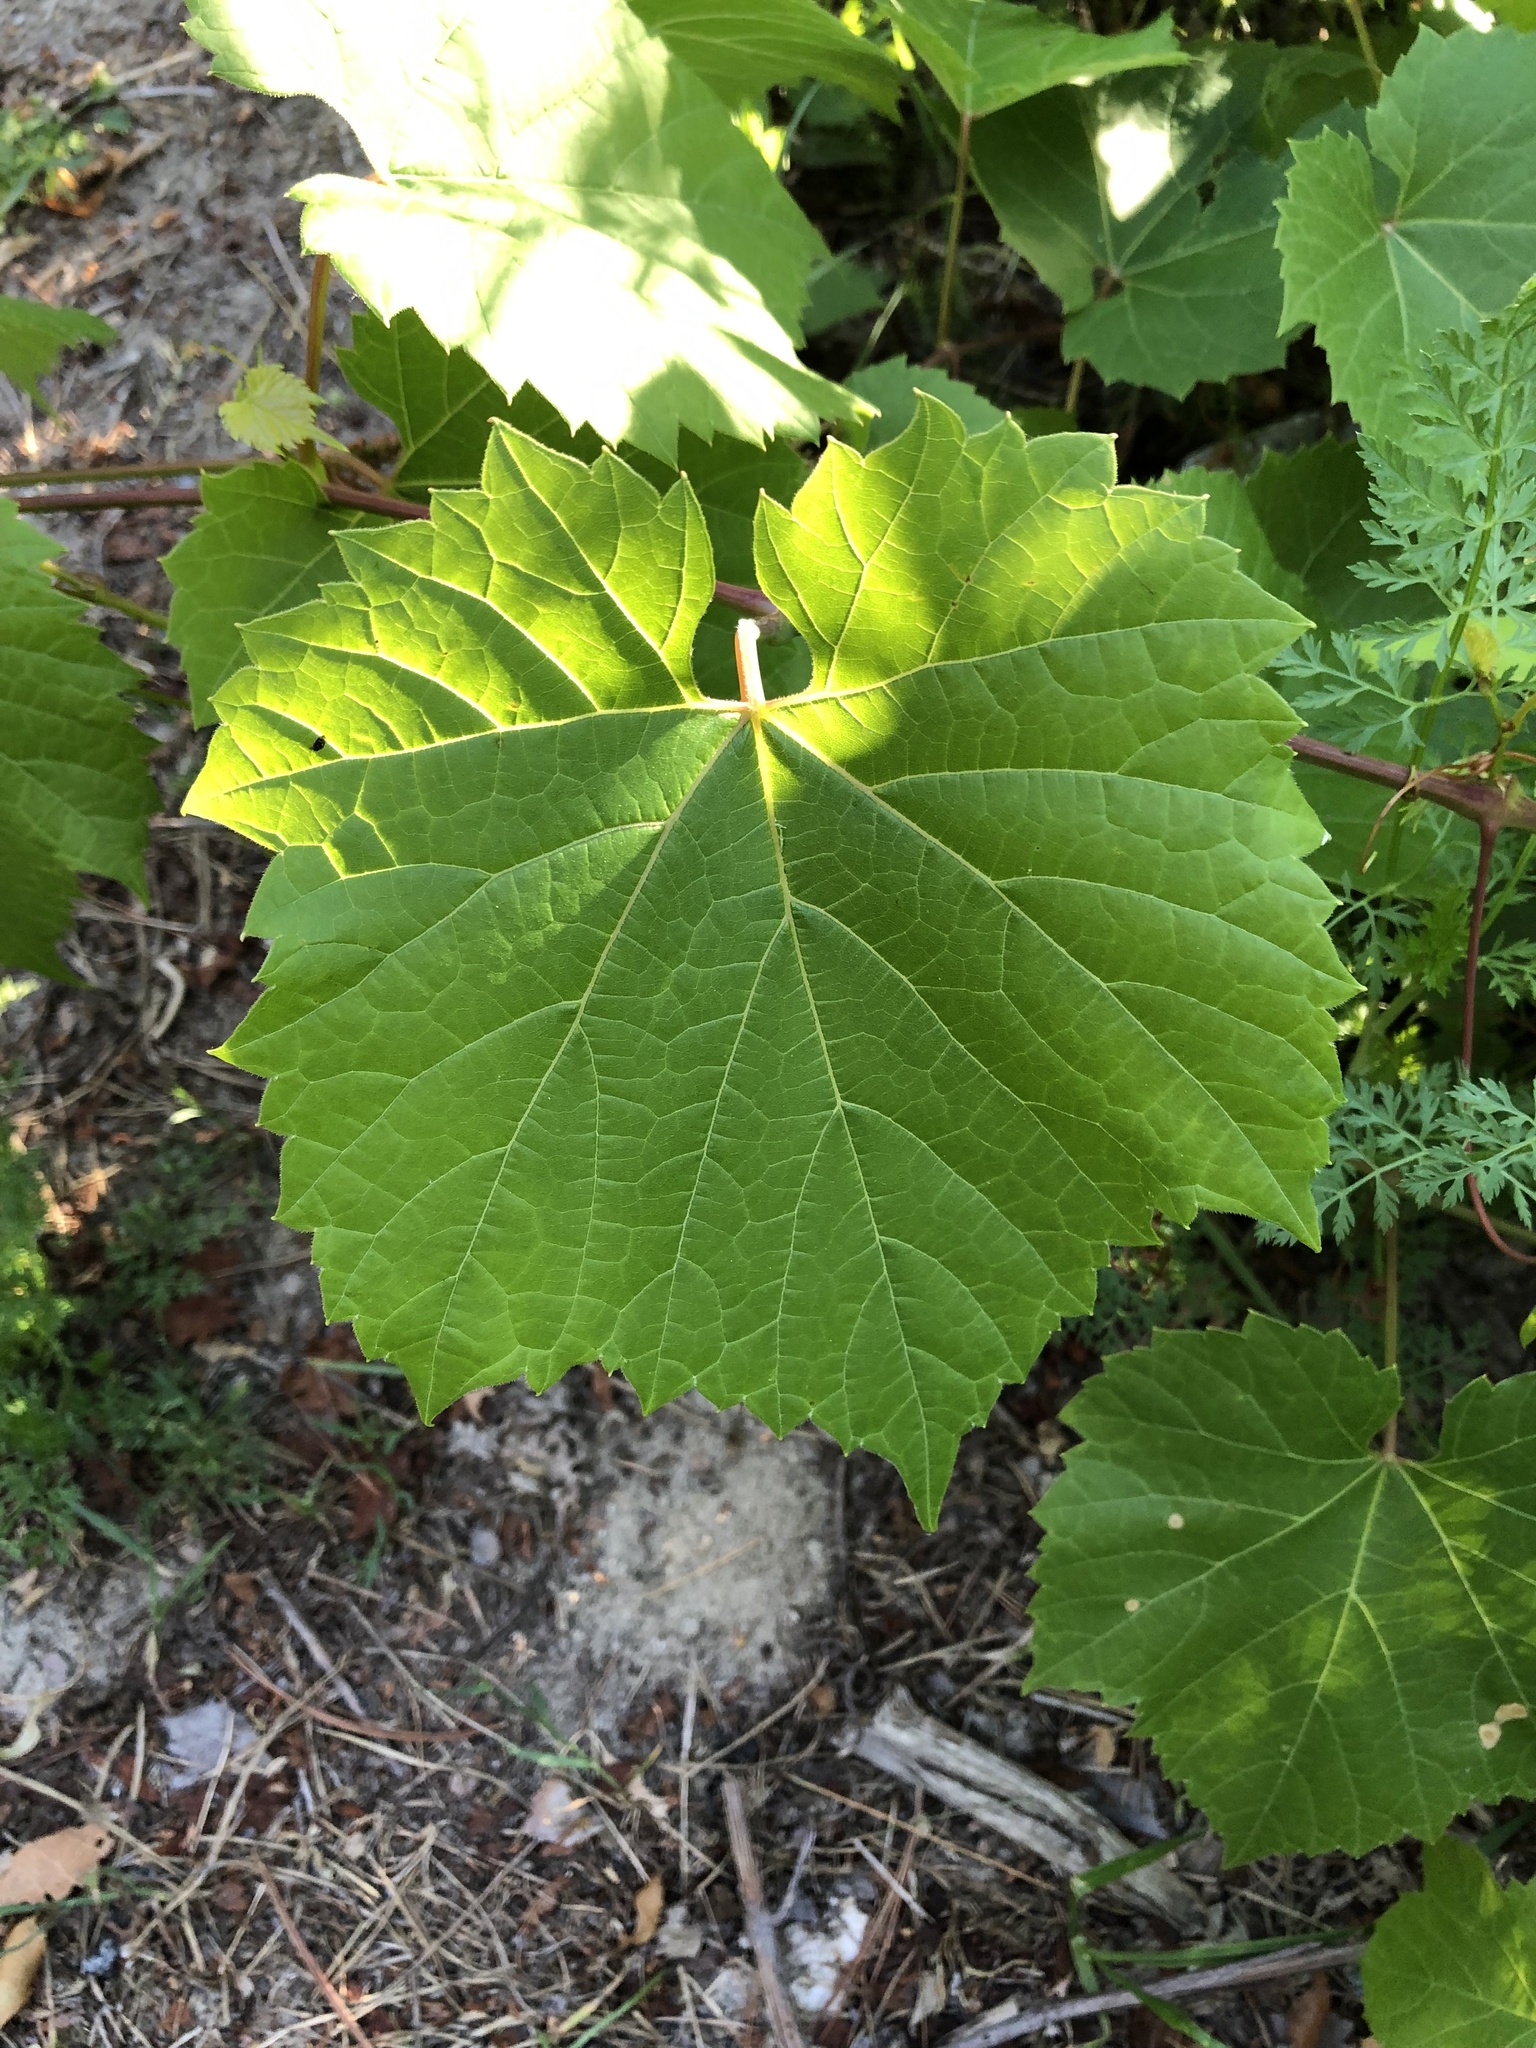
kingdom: Plantae
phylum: Tracheophyta
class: Magnoliopsida
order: Vitales
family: Vitaceae
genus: Vitis
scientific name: Vitis riparia
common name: Frost grape
